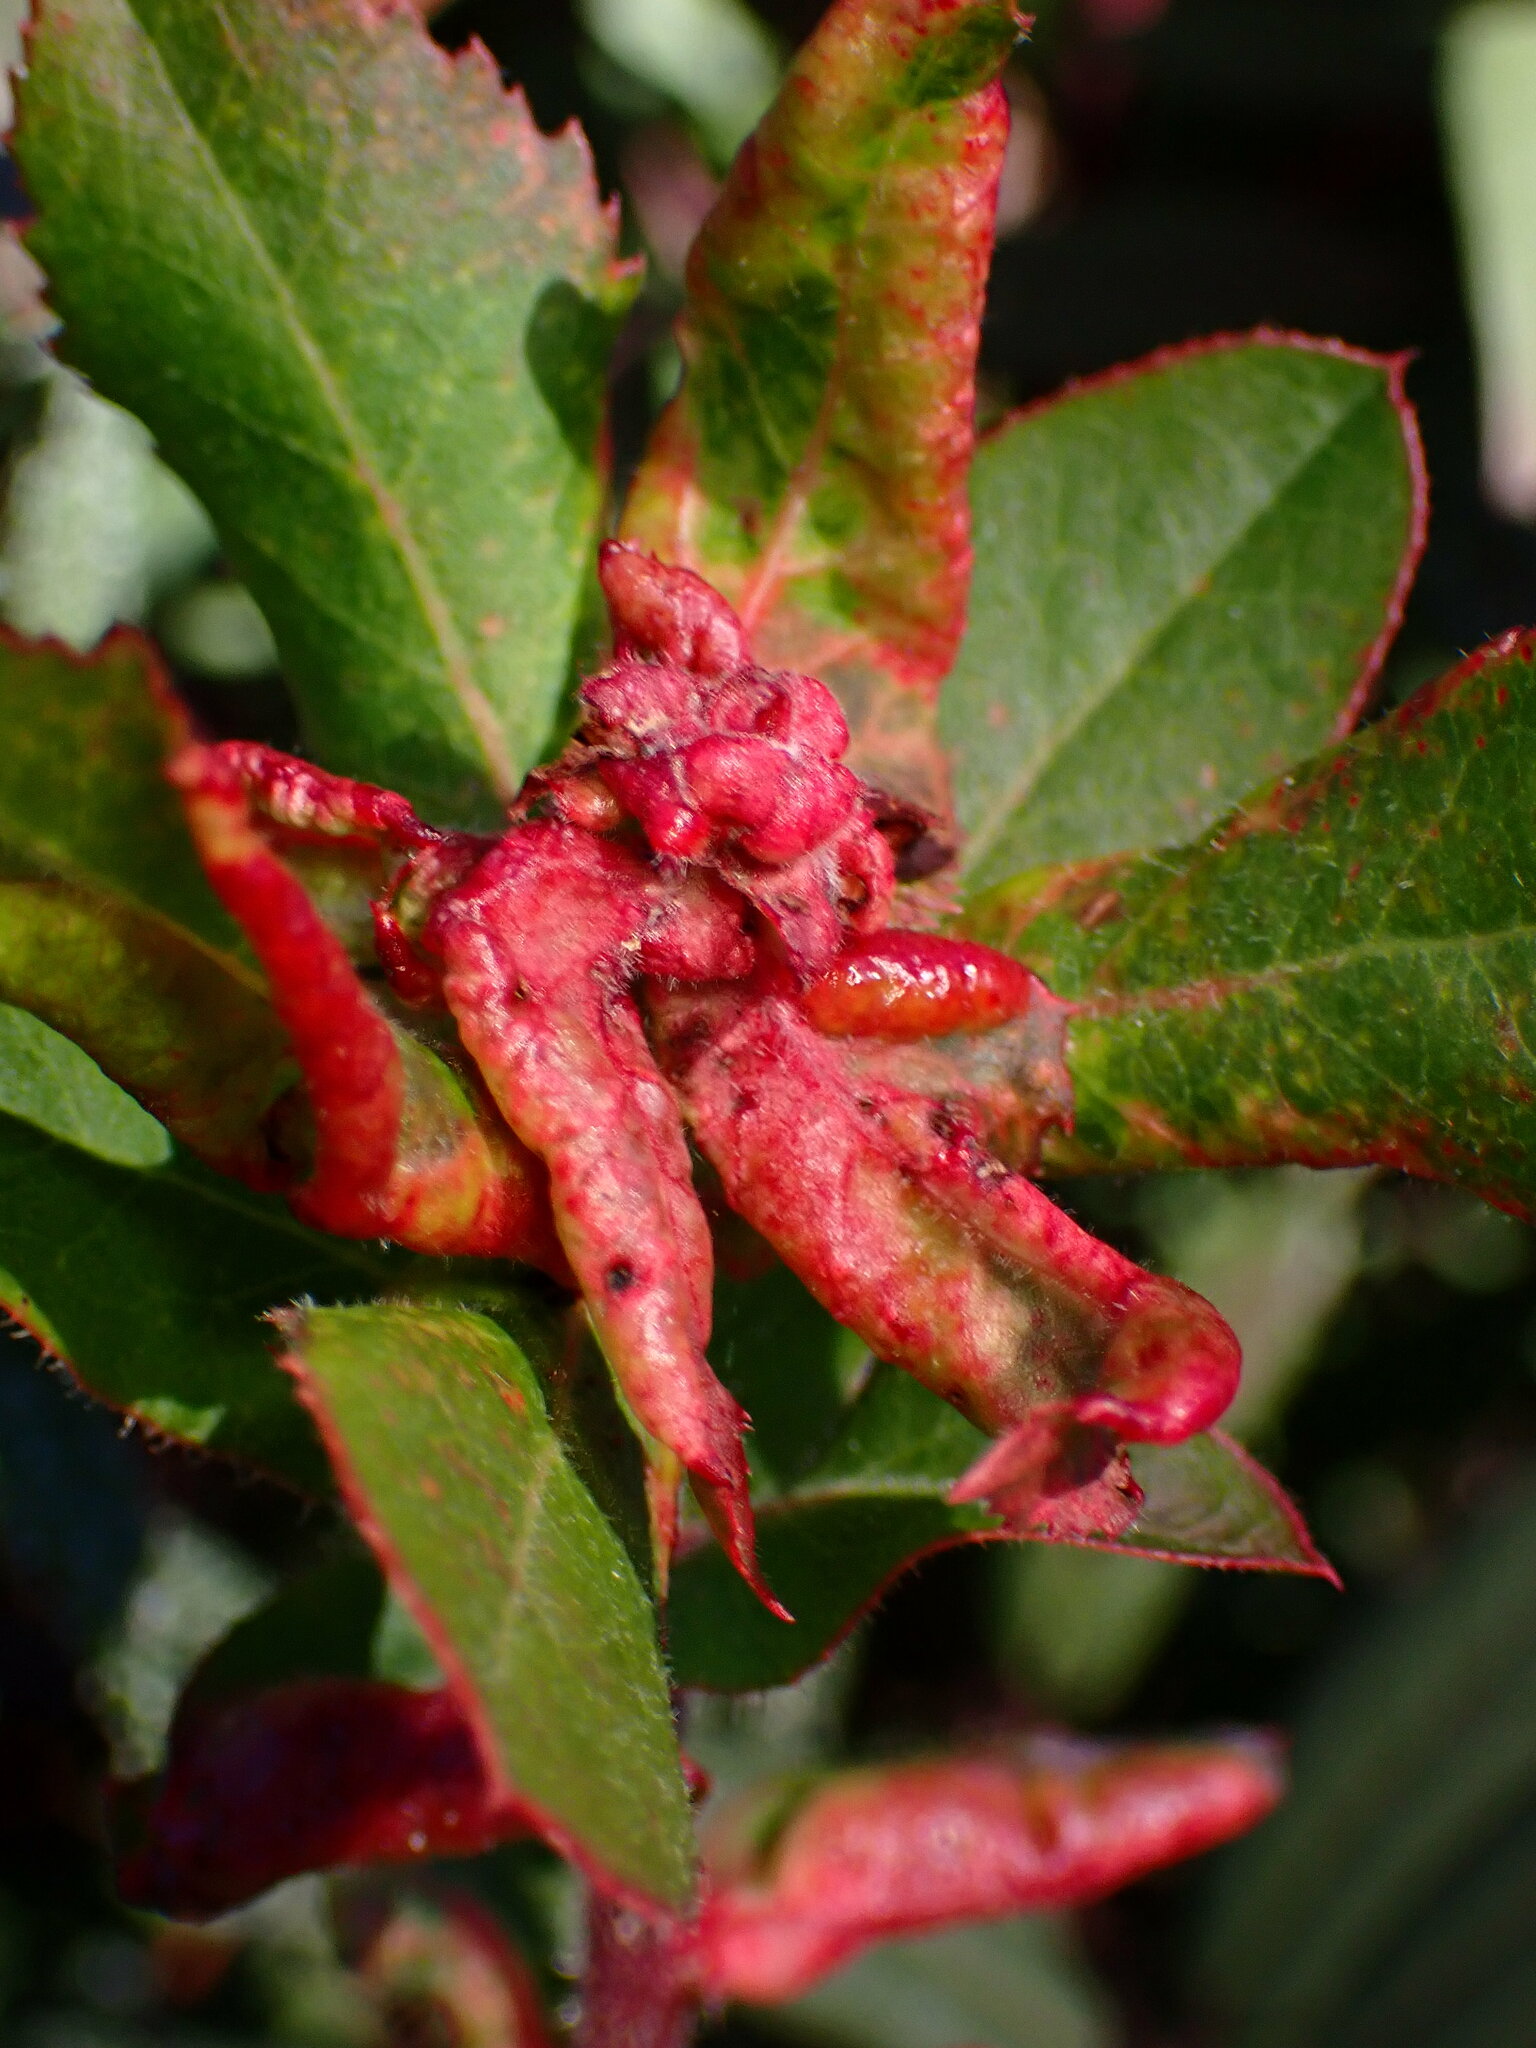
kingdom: Animalia
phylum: Arthropoda
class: Insecta
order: Hemiptera
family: Aphididae
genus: Tamalia
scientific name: Tamalia coweni
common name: Manzanita leafgall aphid
